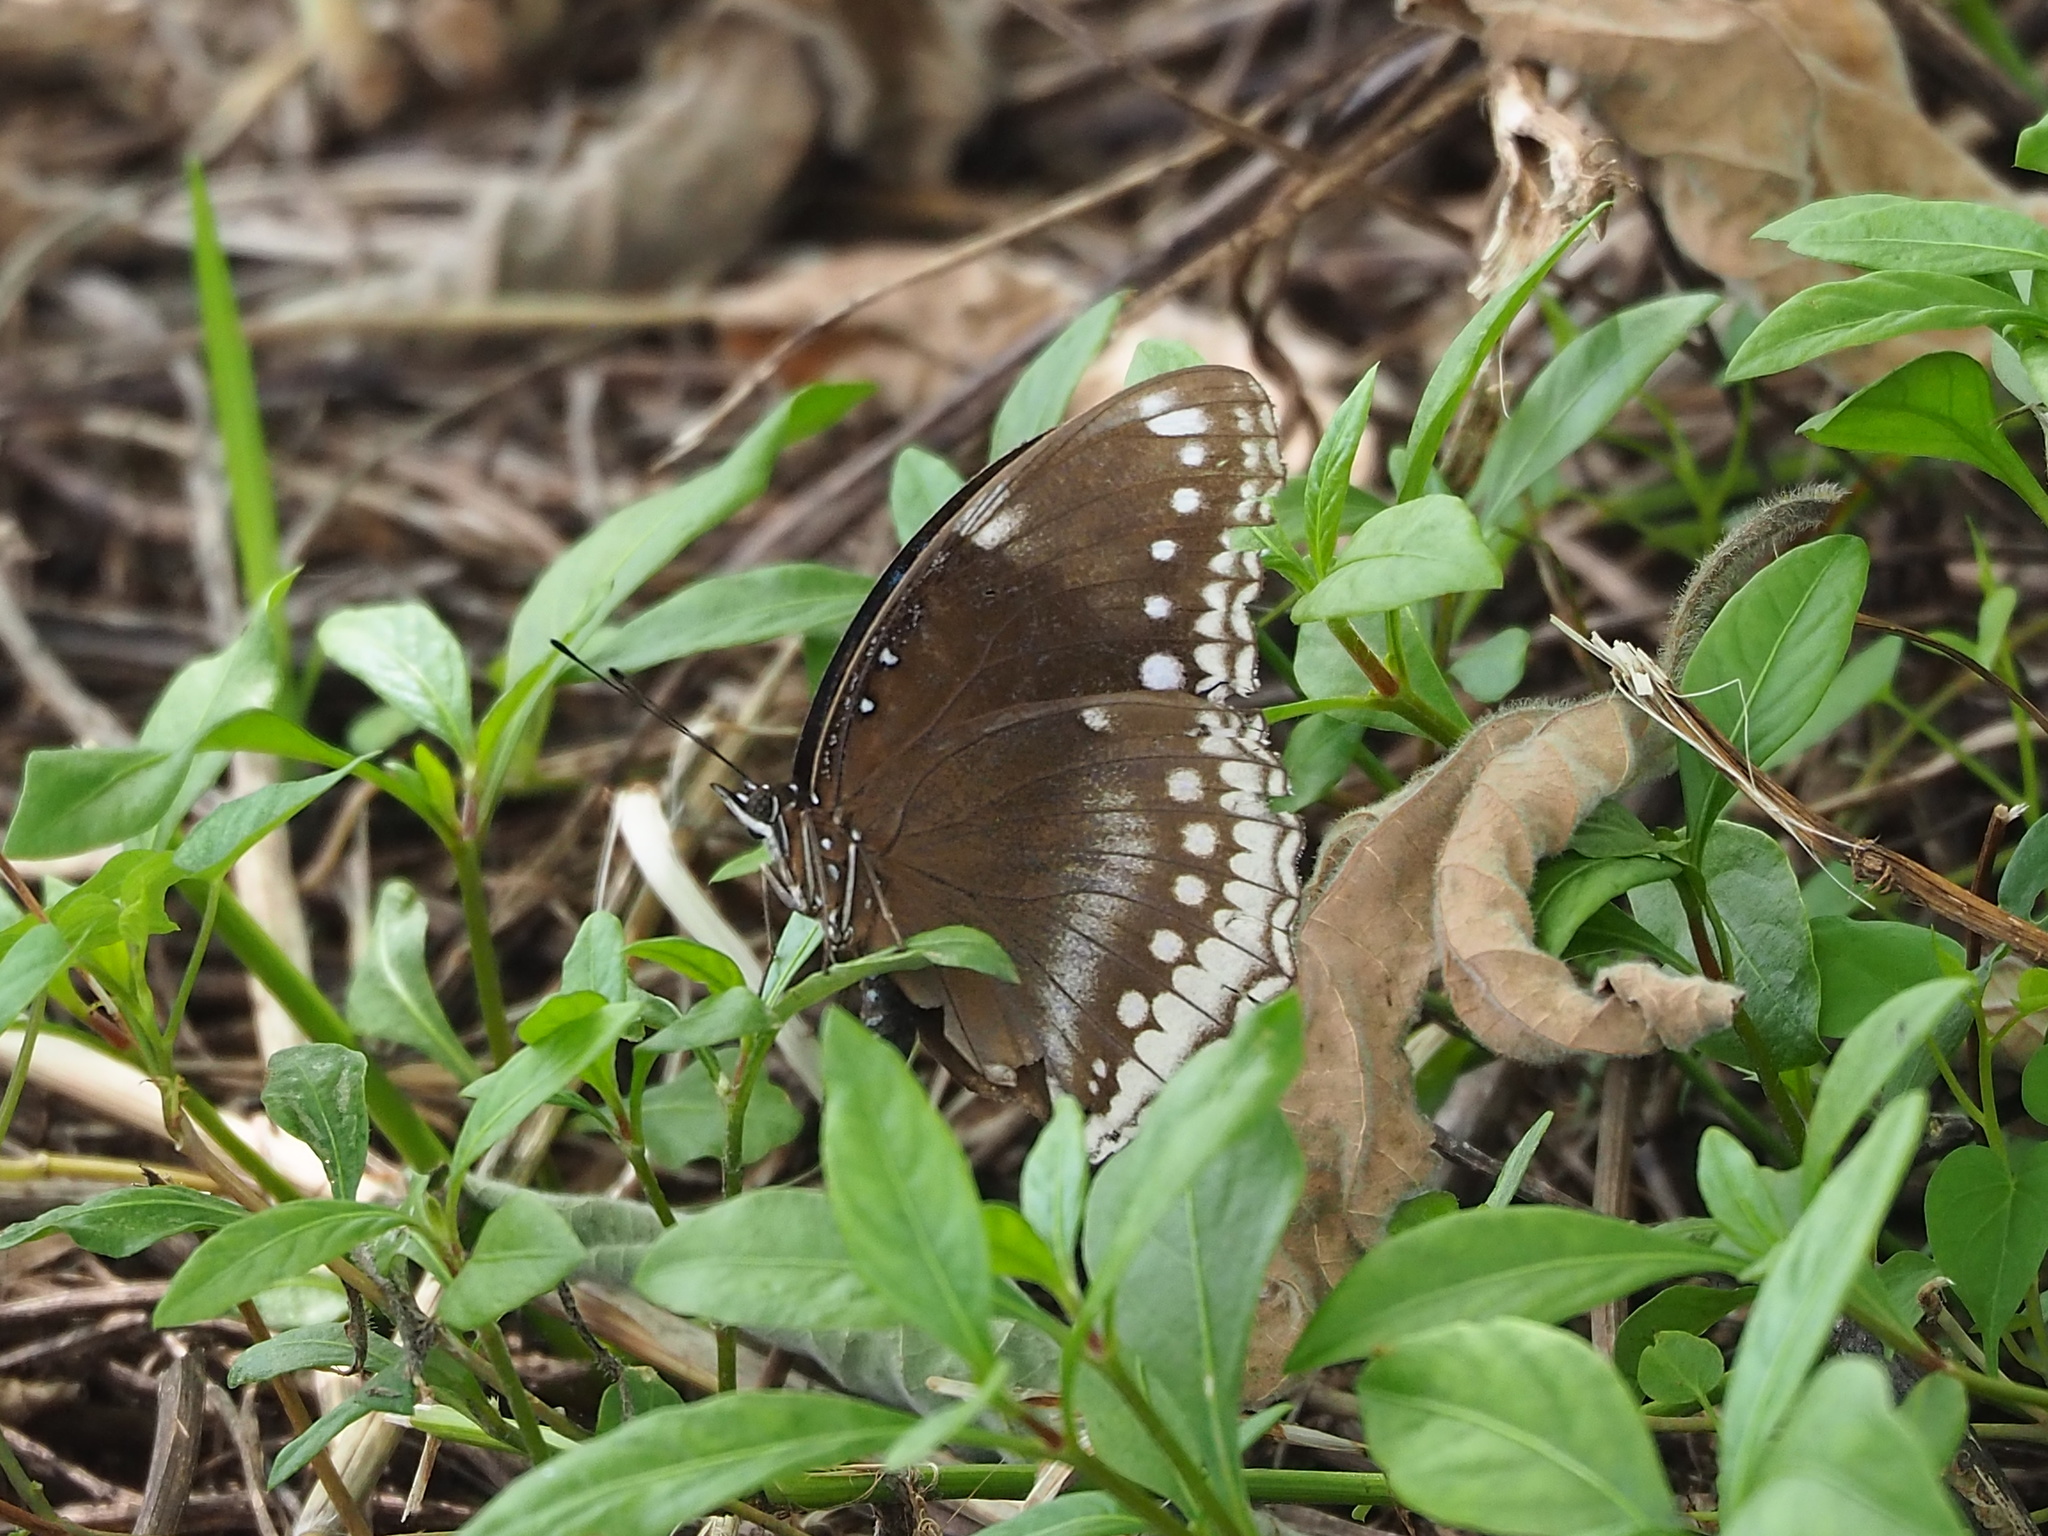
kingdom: Animalia
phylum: Arthropoda
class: Insecta
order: Lepidoptera
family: Nymphalidae
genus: Hypolimnas
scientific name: Hypolimnas bolina
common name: Great eggfly
